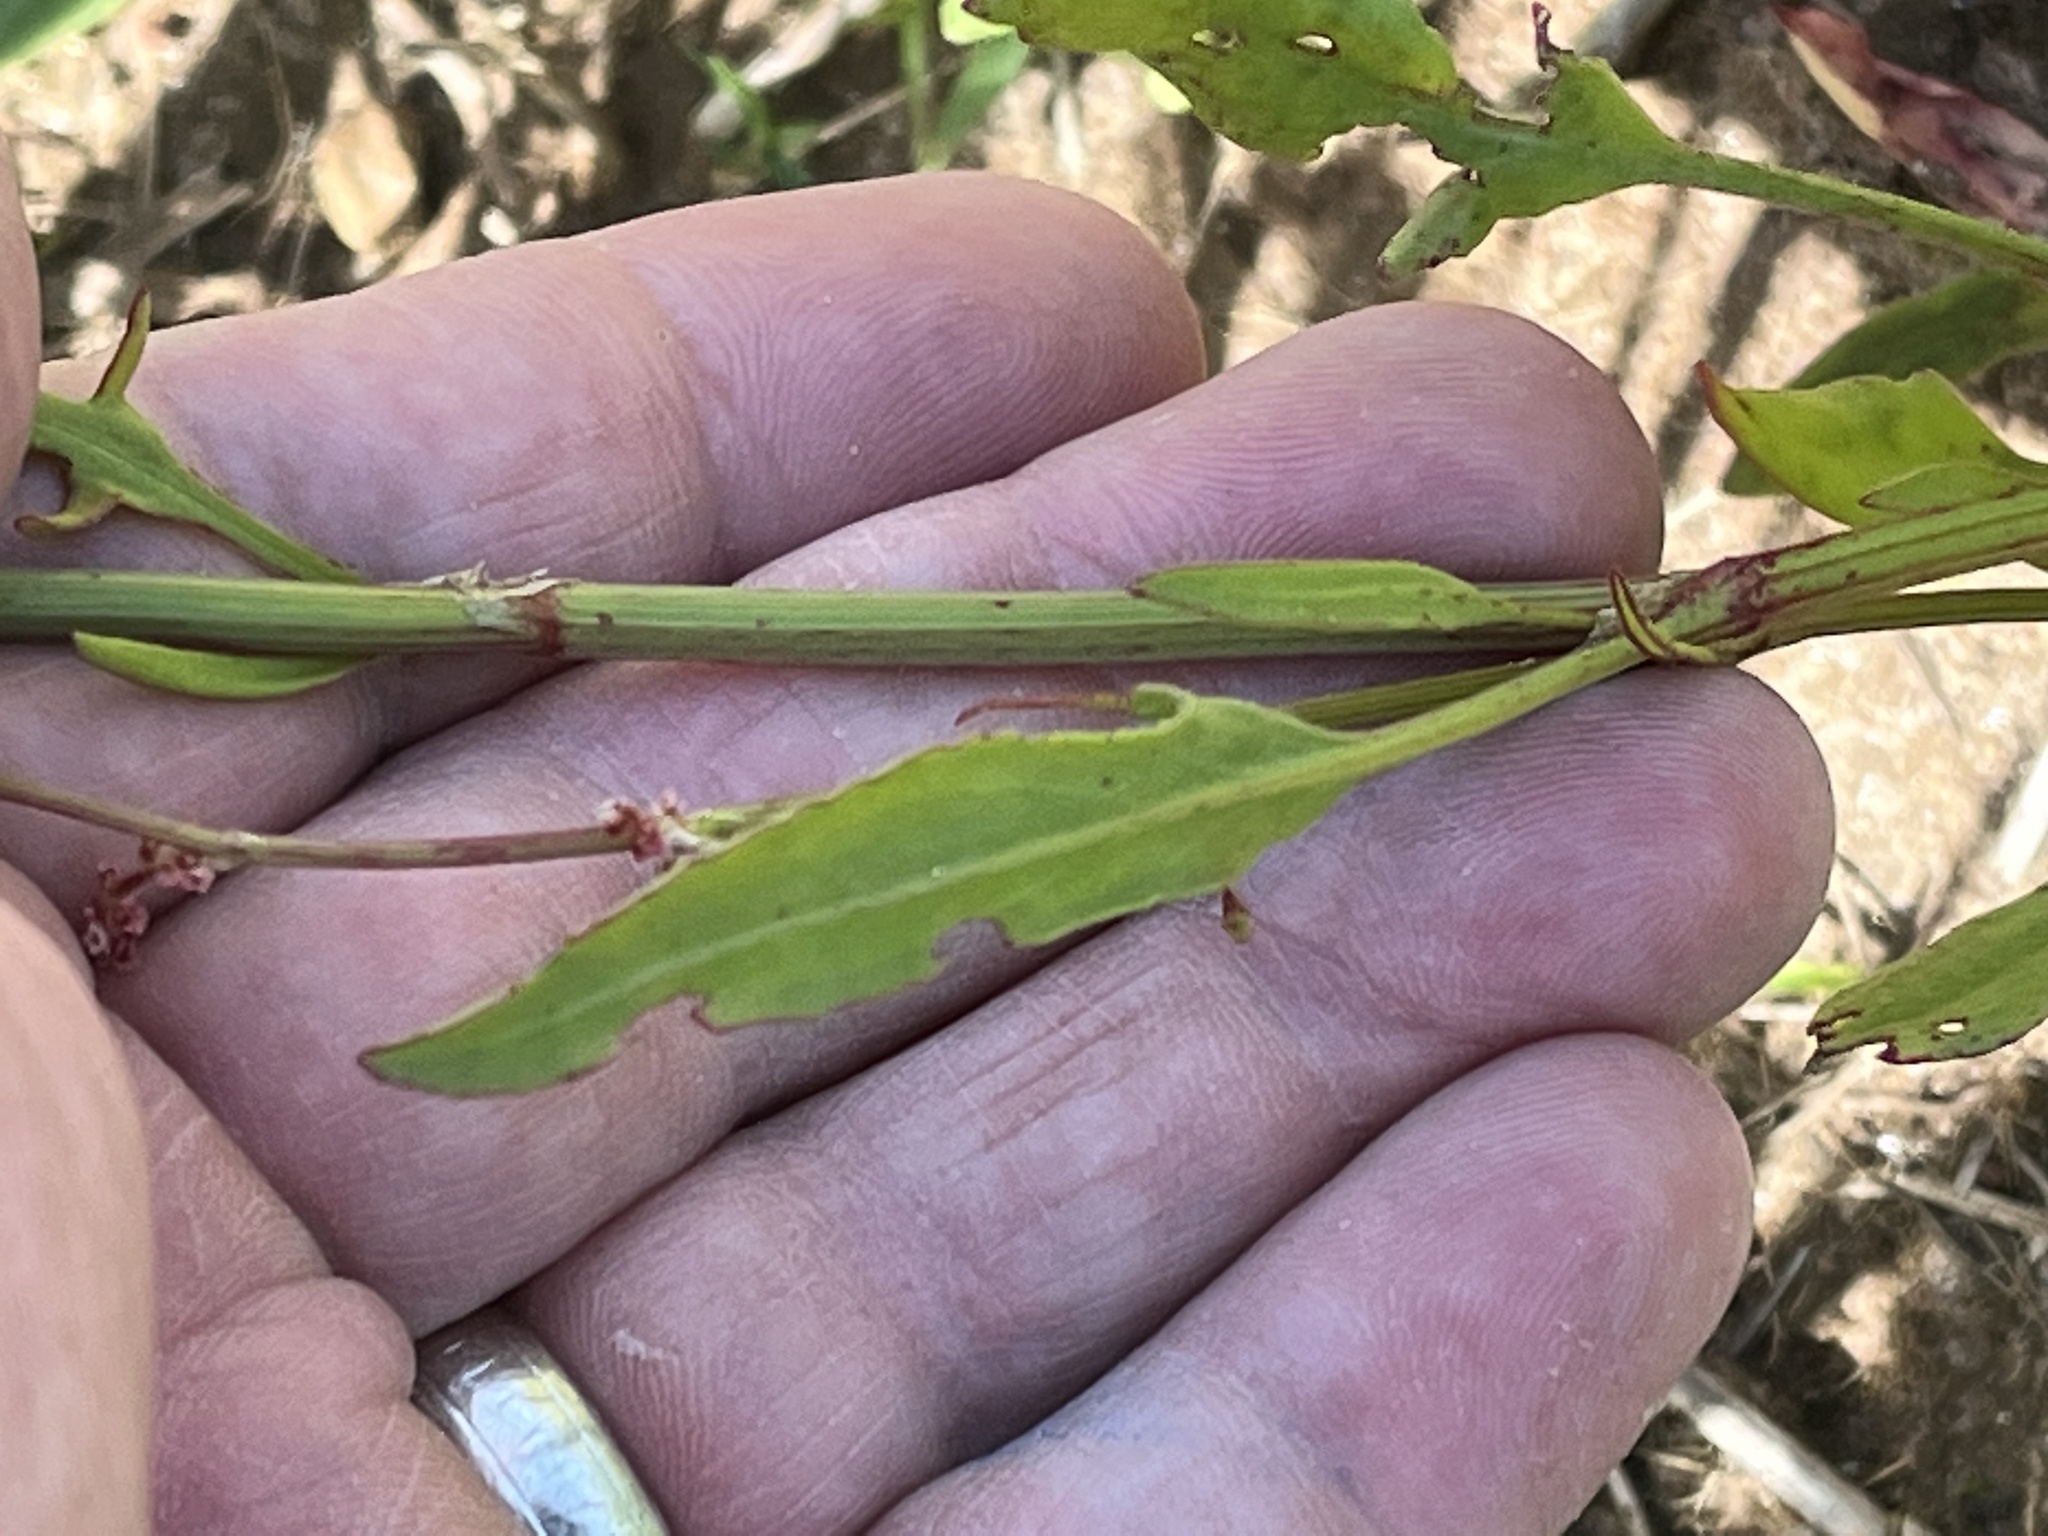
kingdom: Plantae
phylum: Tracheophyta
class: Magnoliopsida
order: Caryophyllales
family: Polygonaceae
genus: Rumex
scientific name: Rumex hastatulus
